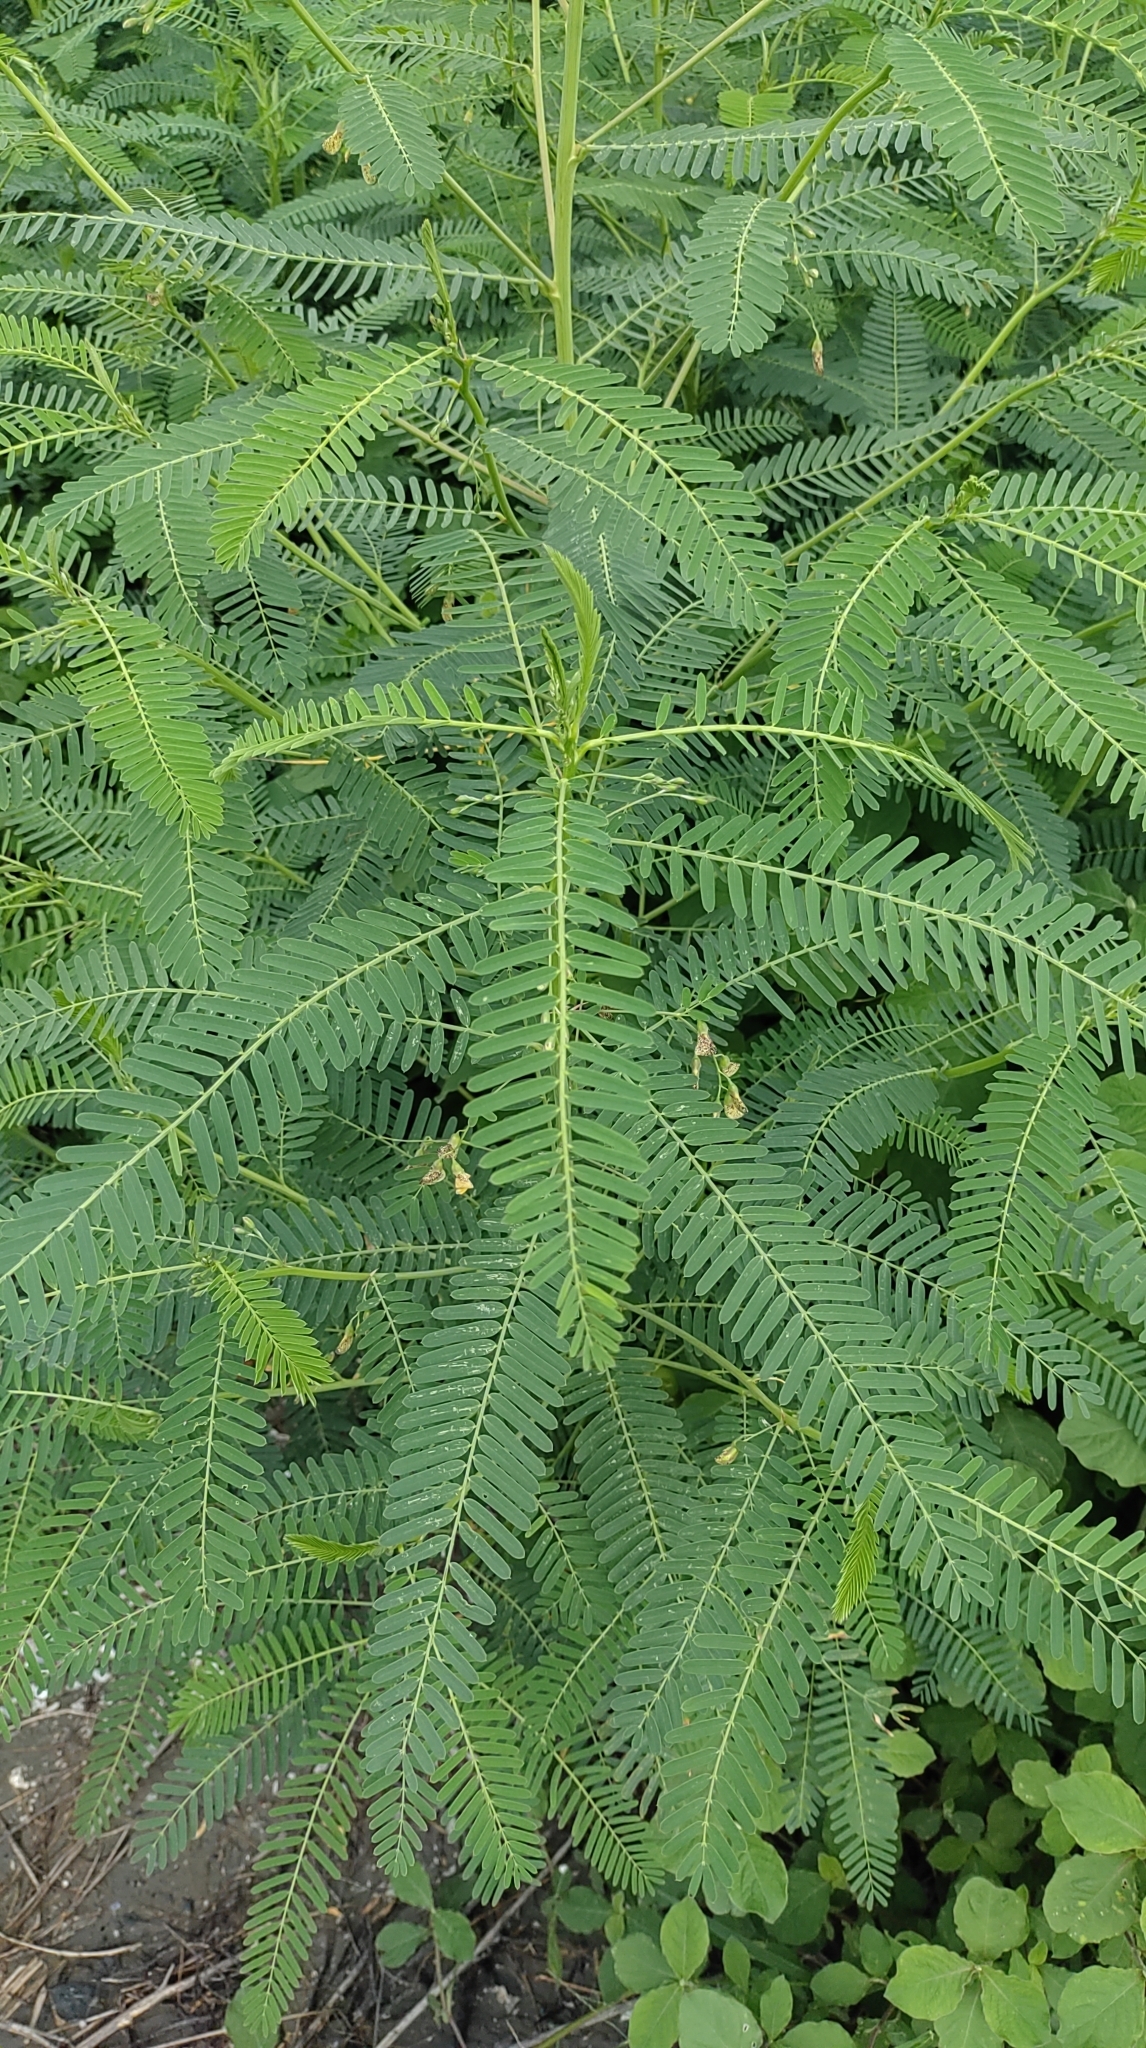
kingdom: Plantae
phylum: Tracheophyta
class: Magnoliopsida
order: Fabales
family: Fabaceae
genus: Sesbania
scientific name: Sesbania cannabina
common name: Canicha
